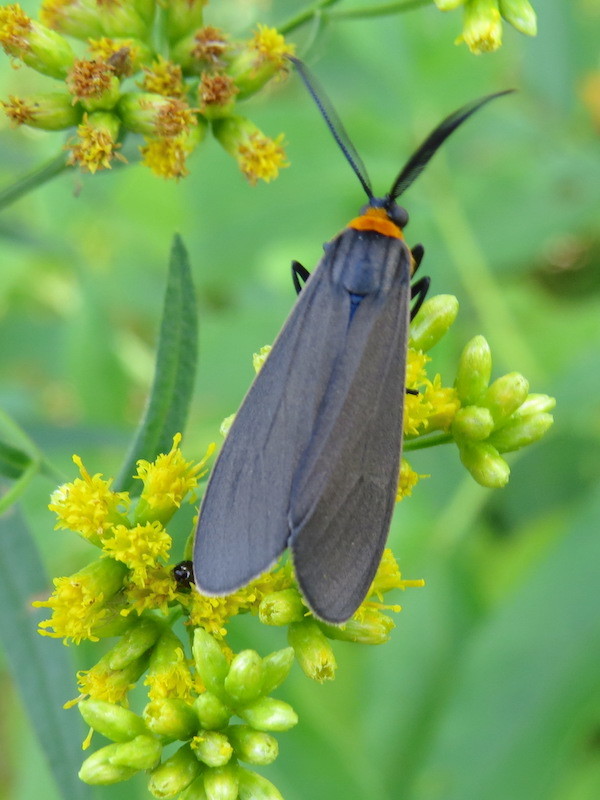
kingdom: Animalia
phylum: Arthropoda
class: Insecta
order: Lepidoptera
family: Erebidae
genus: Cisseps
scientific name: Cisseps fulvicollis
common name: Yellow-collared scape moth
